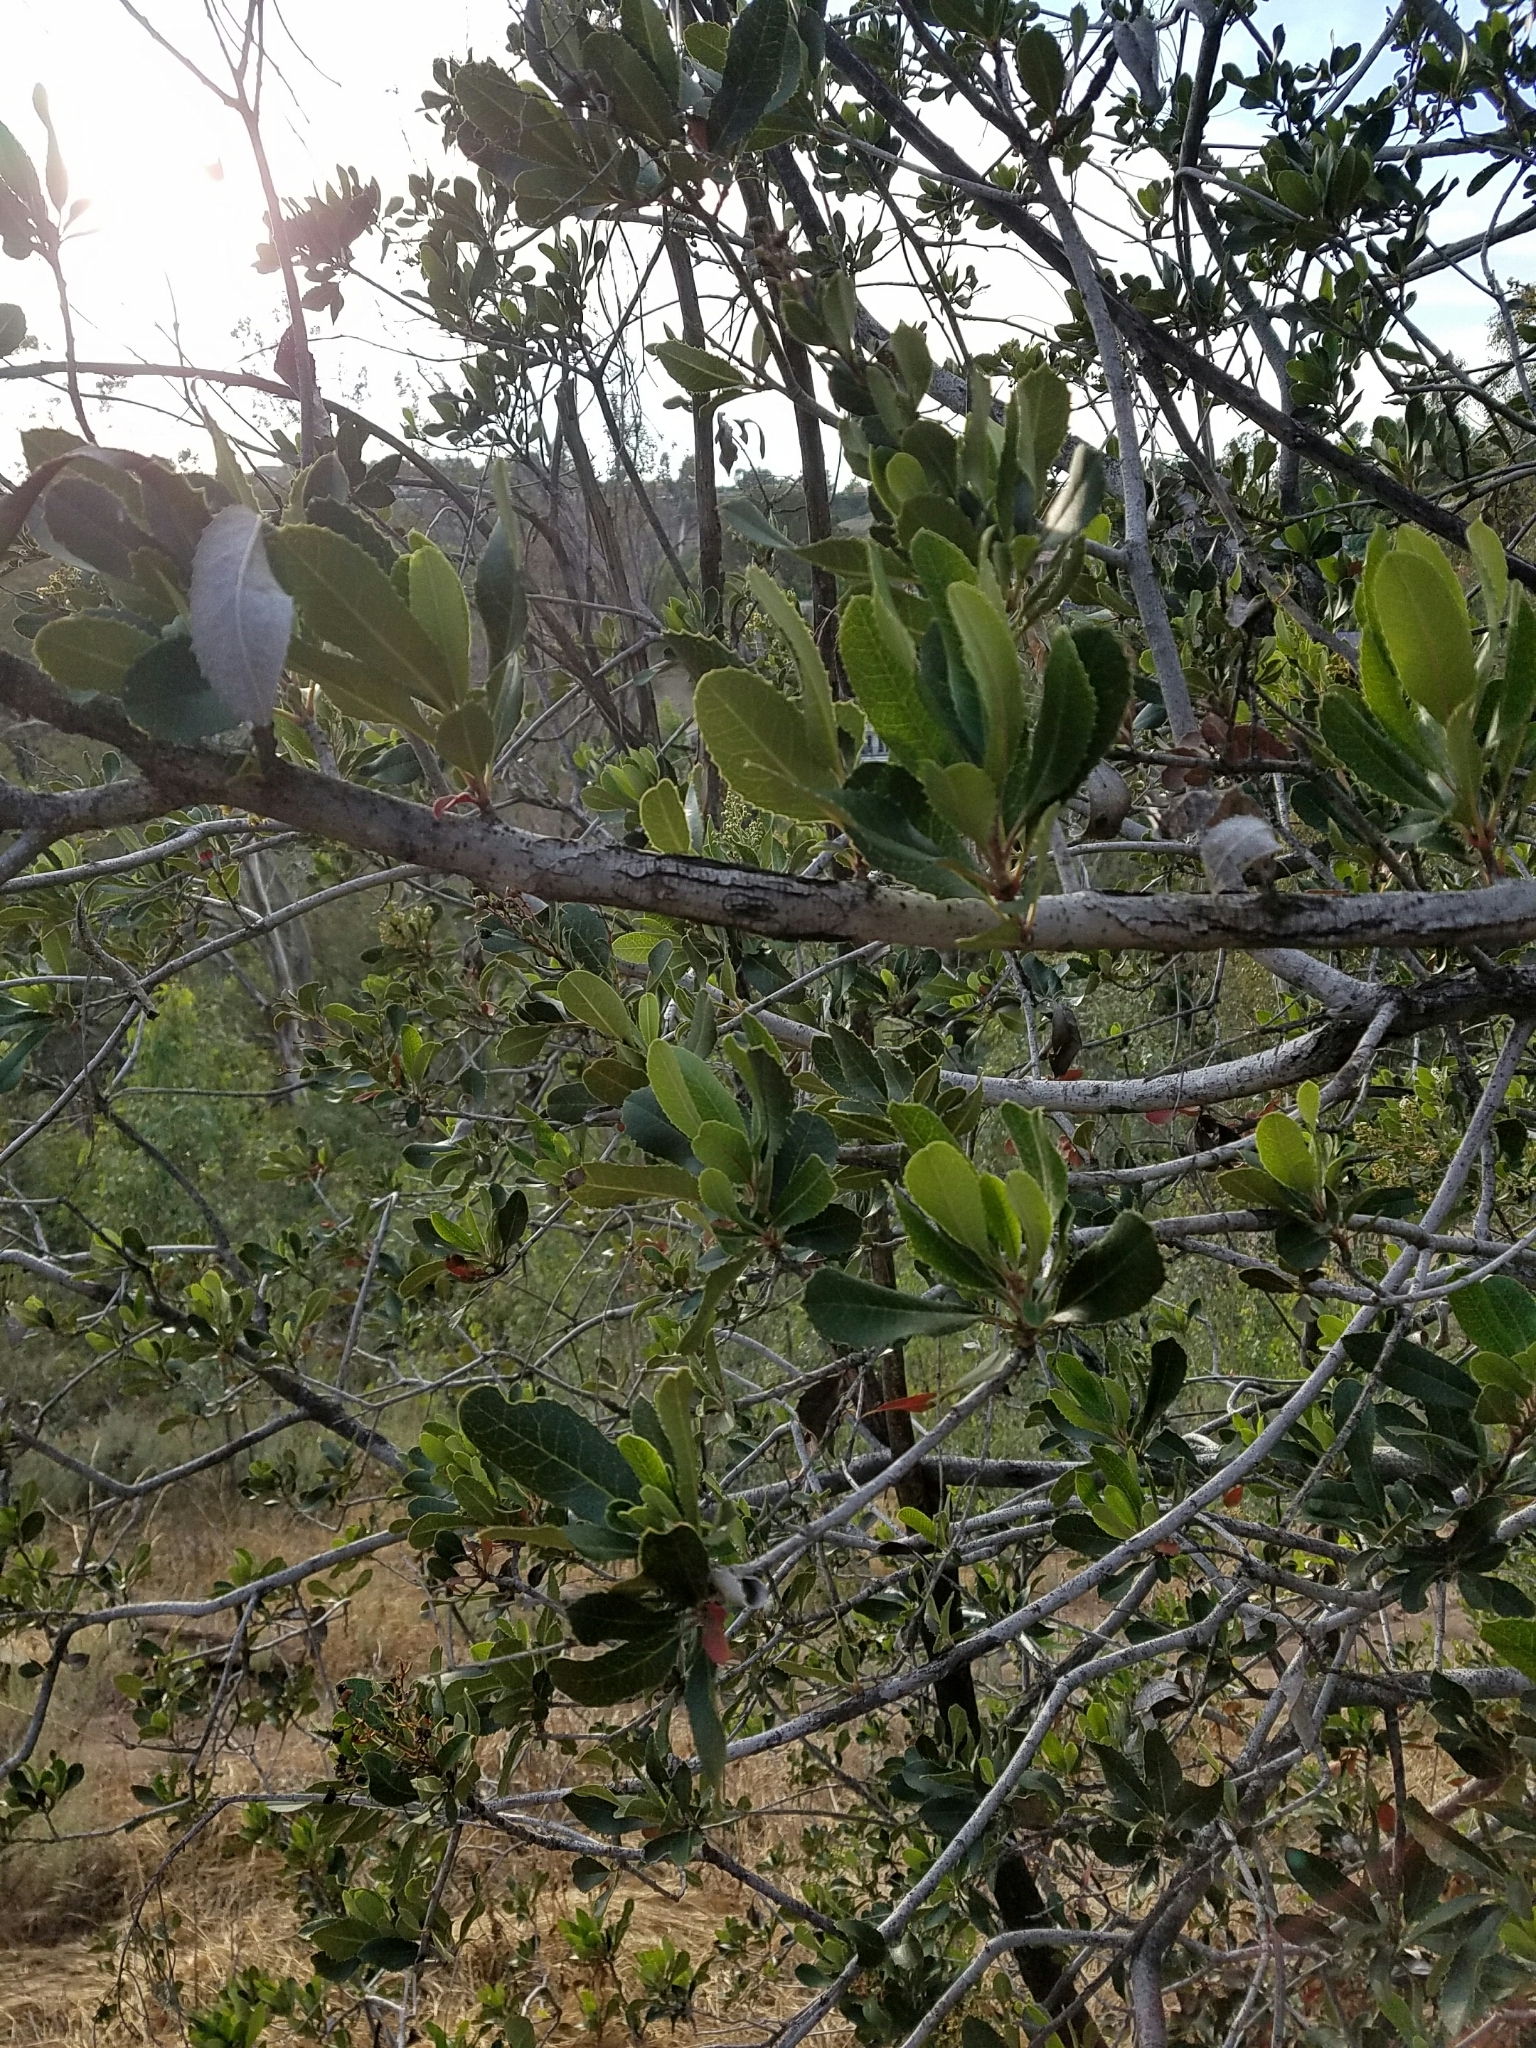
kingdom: Plantae
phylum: Tracheophyta
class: Magnoliopsida
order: Rosales
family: Rosaceae
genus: Heteromeles
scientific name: Heteromeles arbutifolia
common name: California-holly
